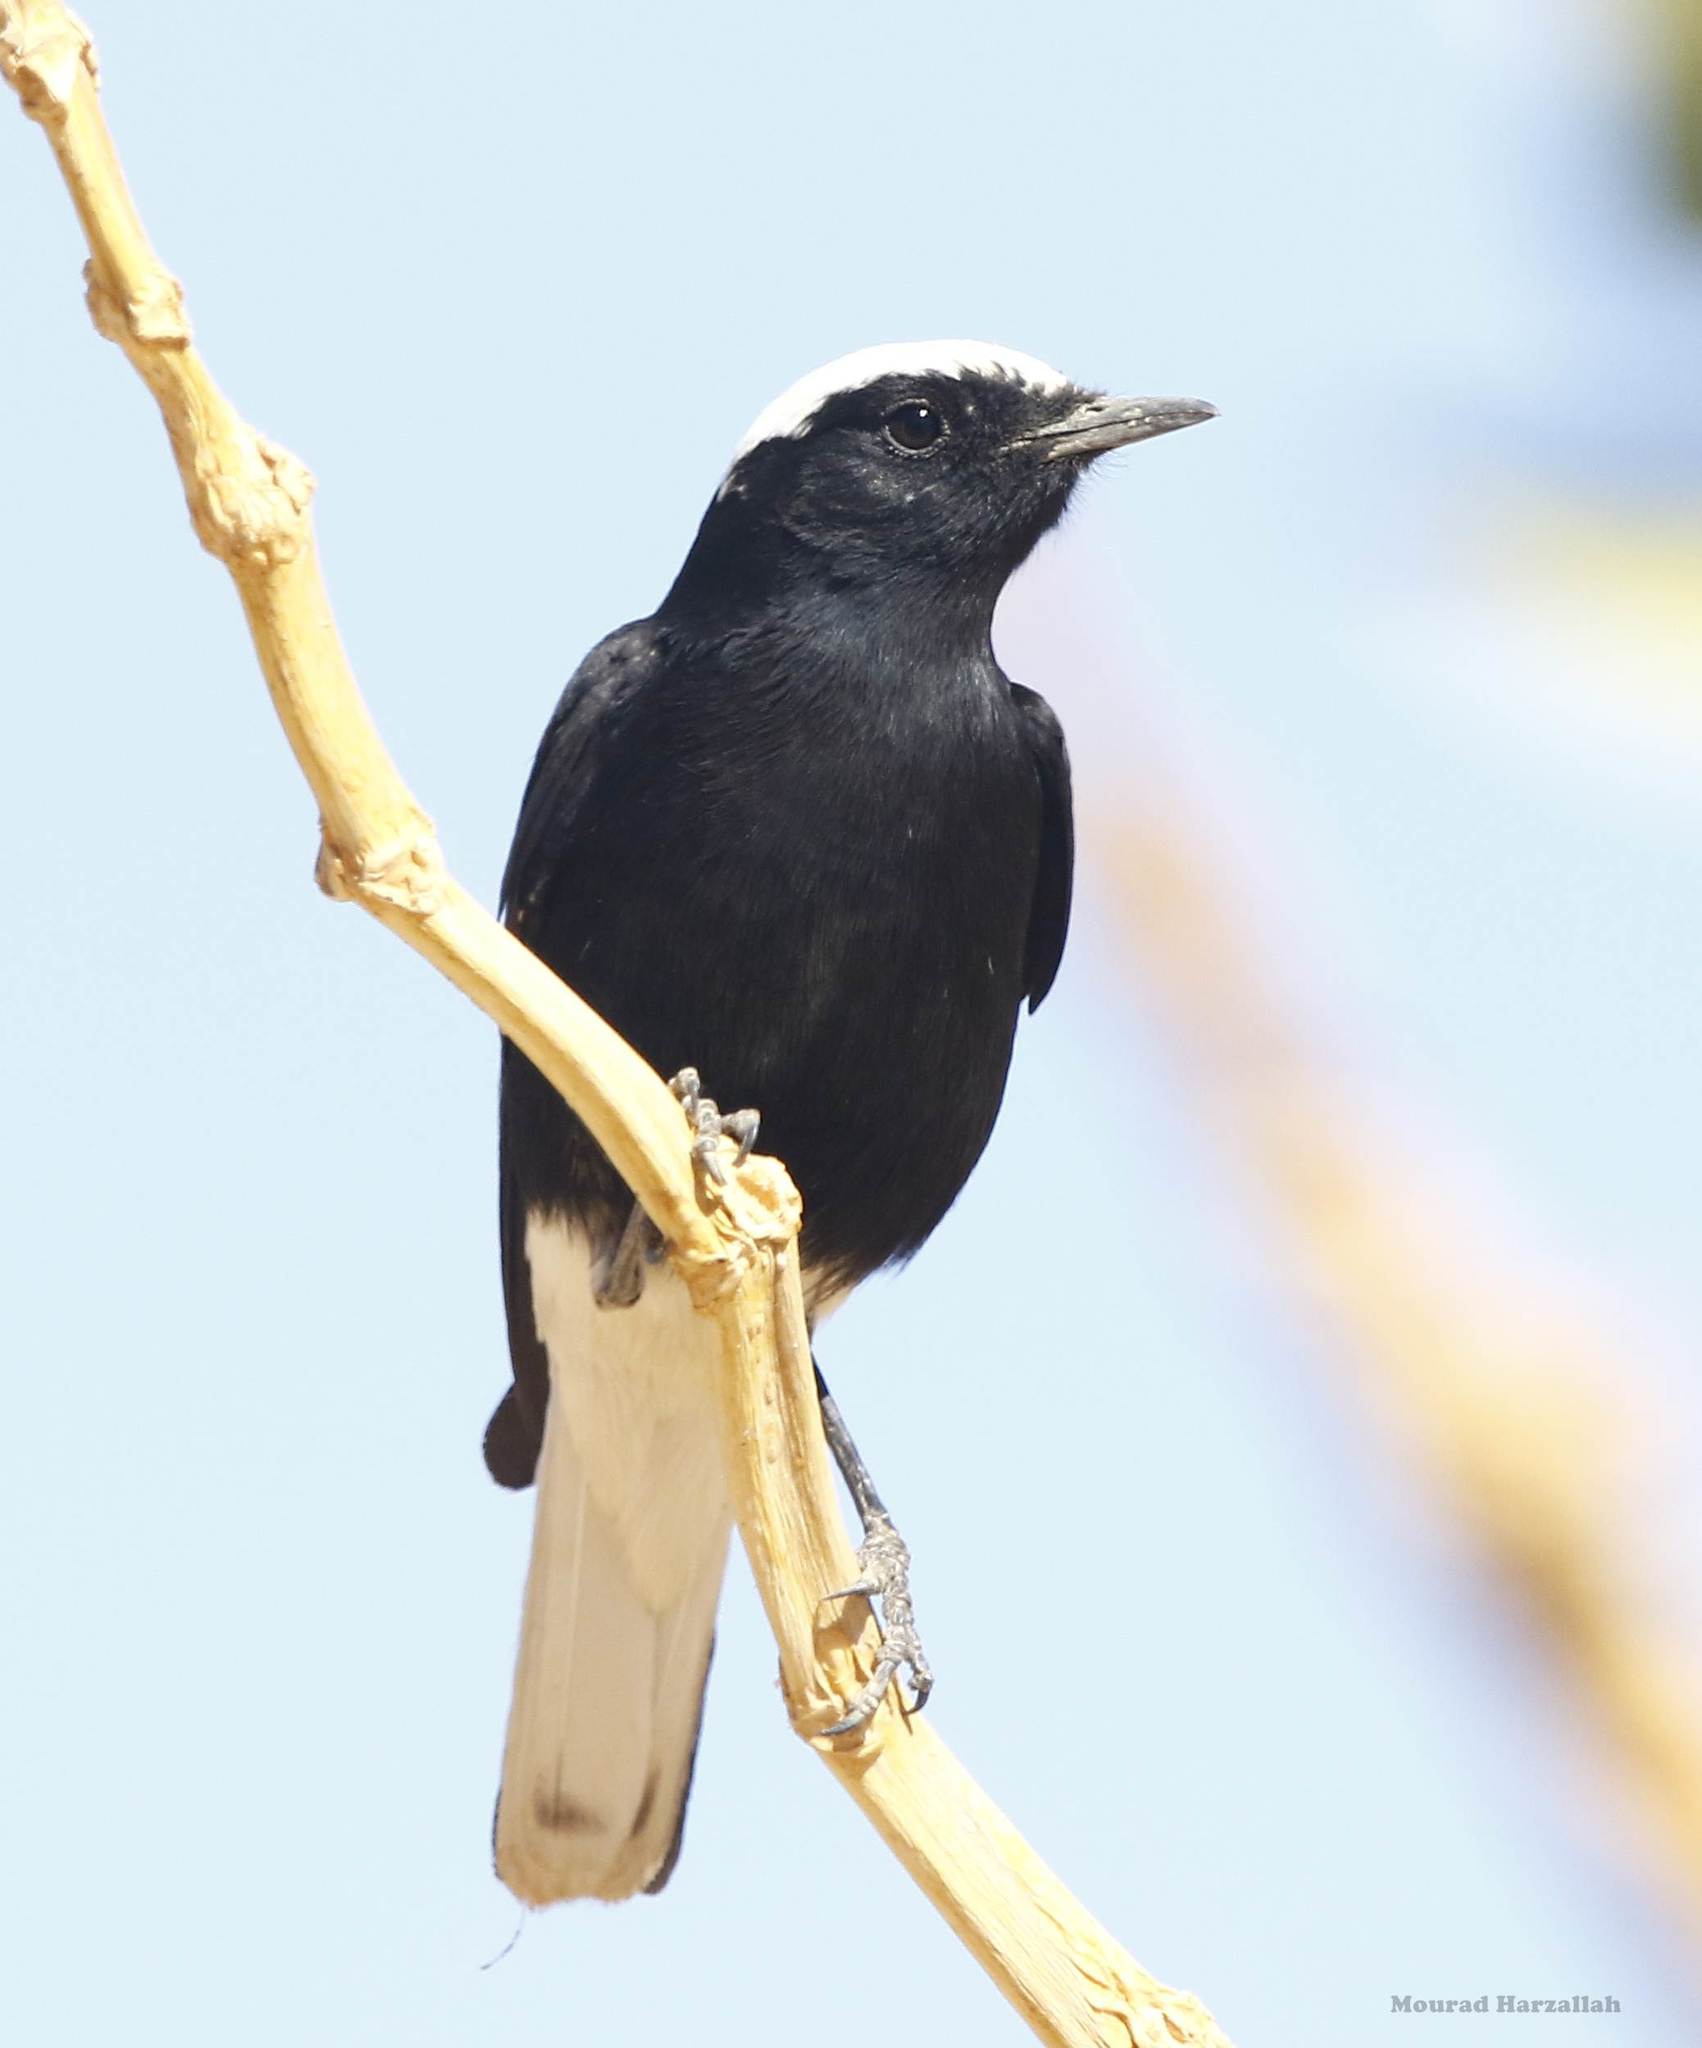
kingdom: Animalia
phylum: Chordata
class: Aves
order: Passeriformes
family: Muscicapidae
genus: Oenanthe
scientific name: Oenanthe leucopyga
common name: White-crowned wheatear
